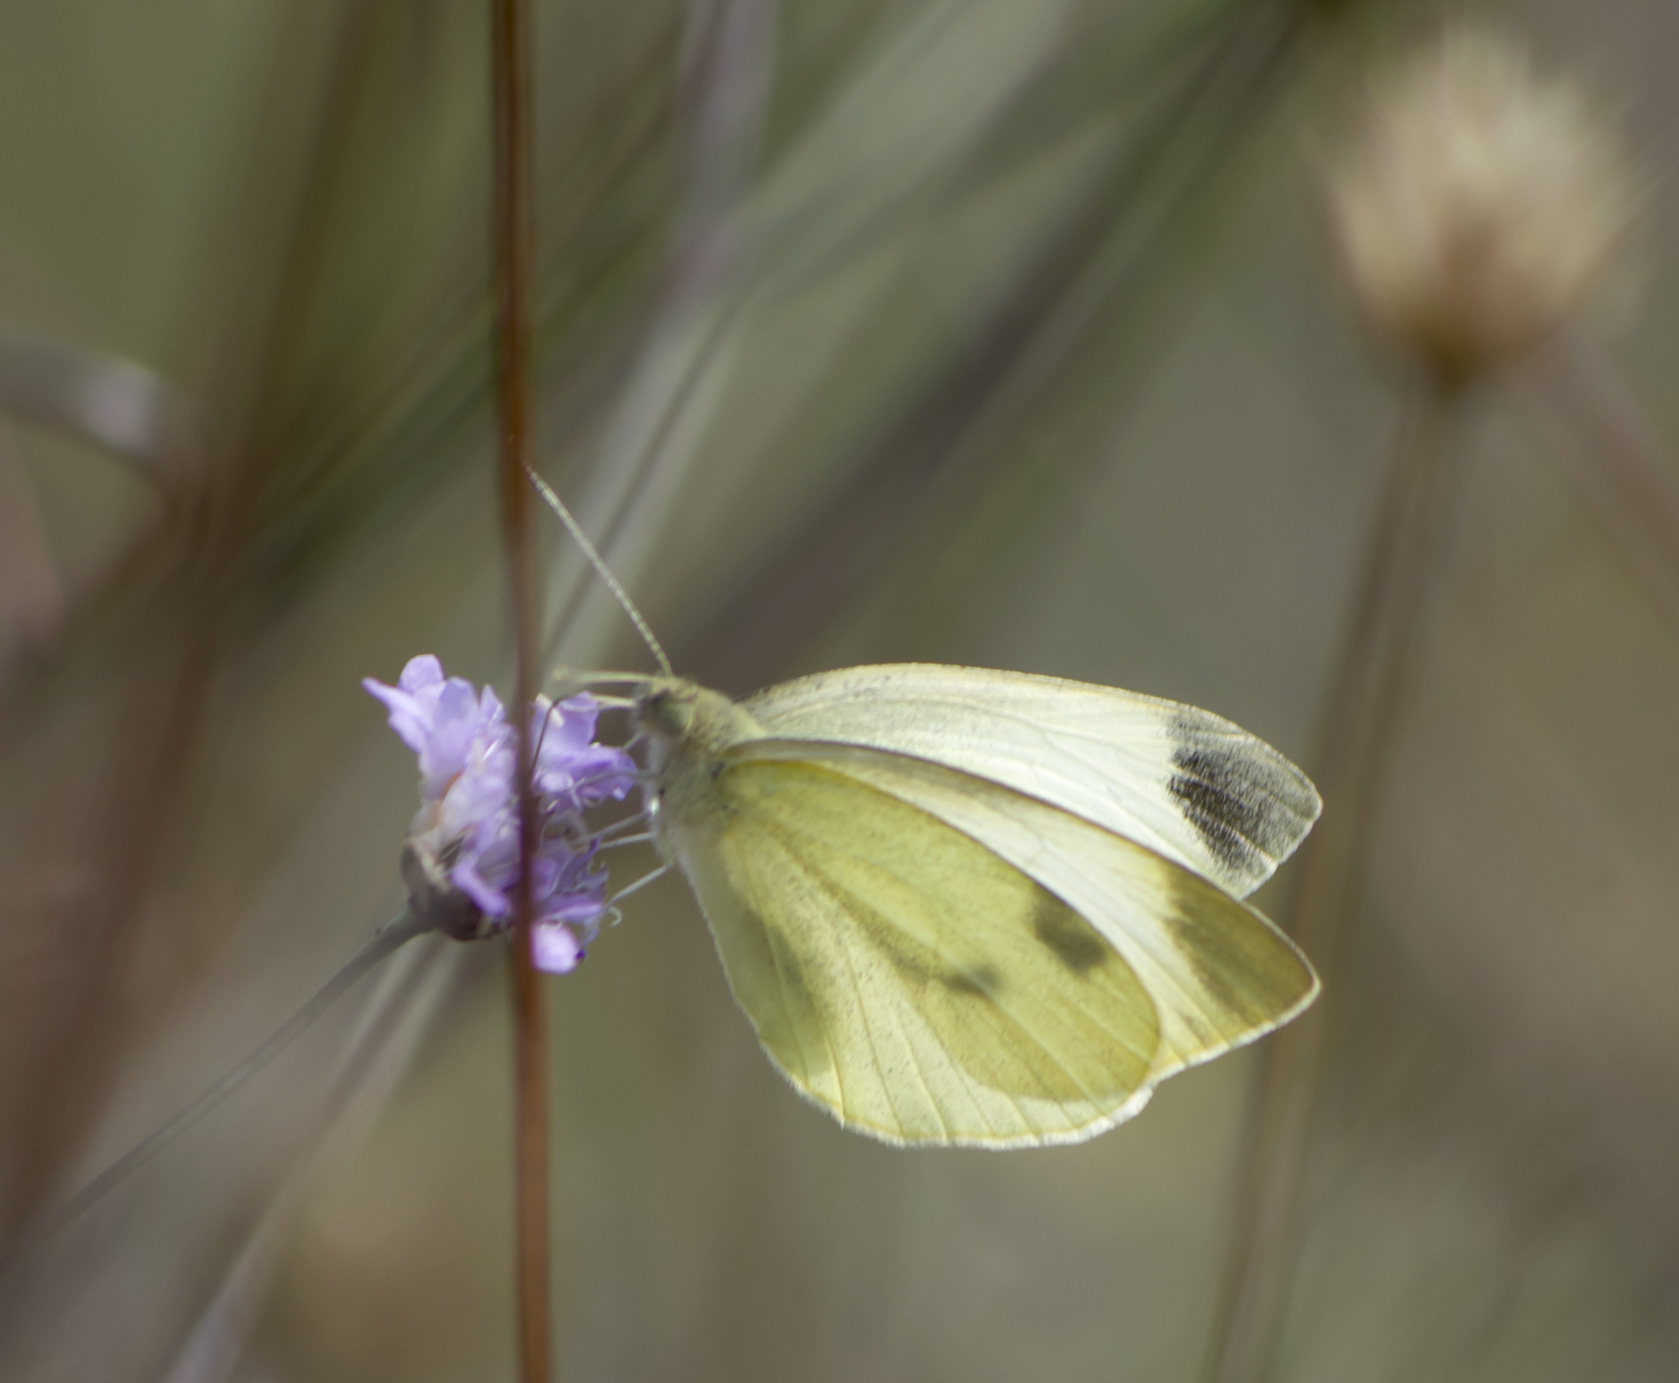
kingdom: Animalia
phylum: Arthropoda
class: Insecta
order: Lepidoptera
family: Pieridae
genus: Pieris
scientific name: Pieris mannii
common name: Southern small white
